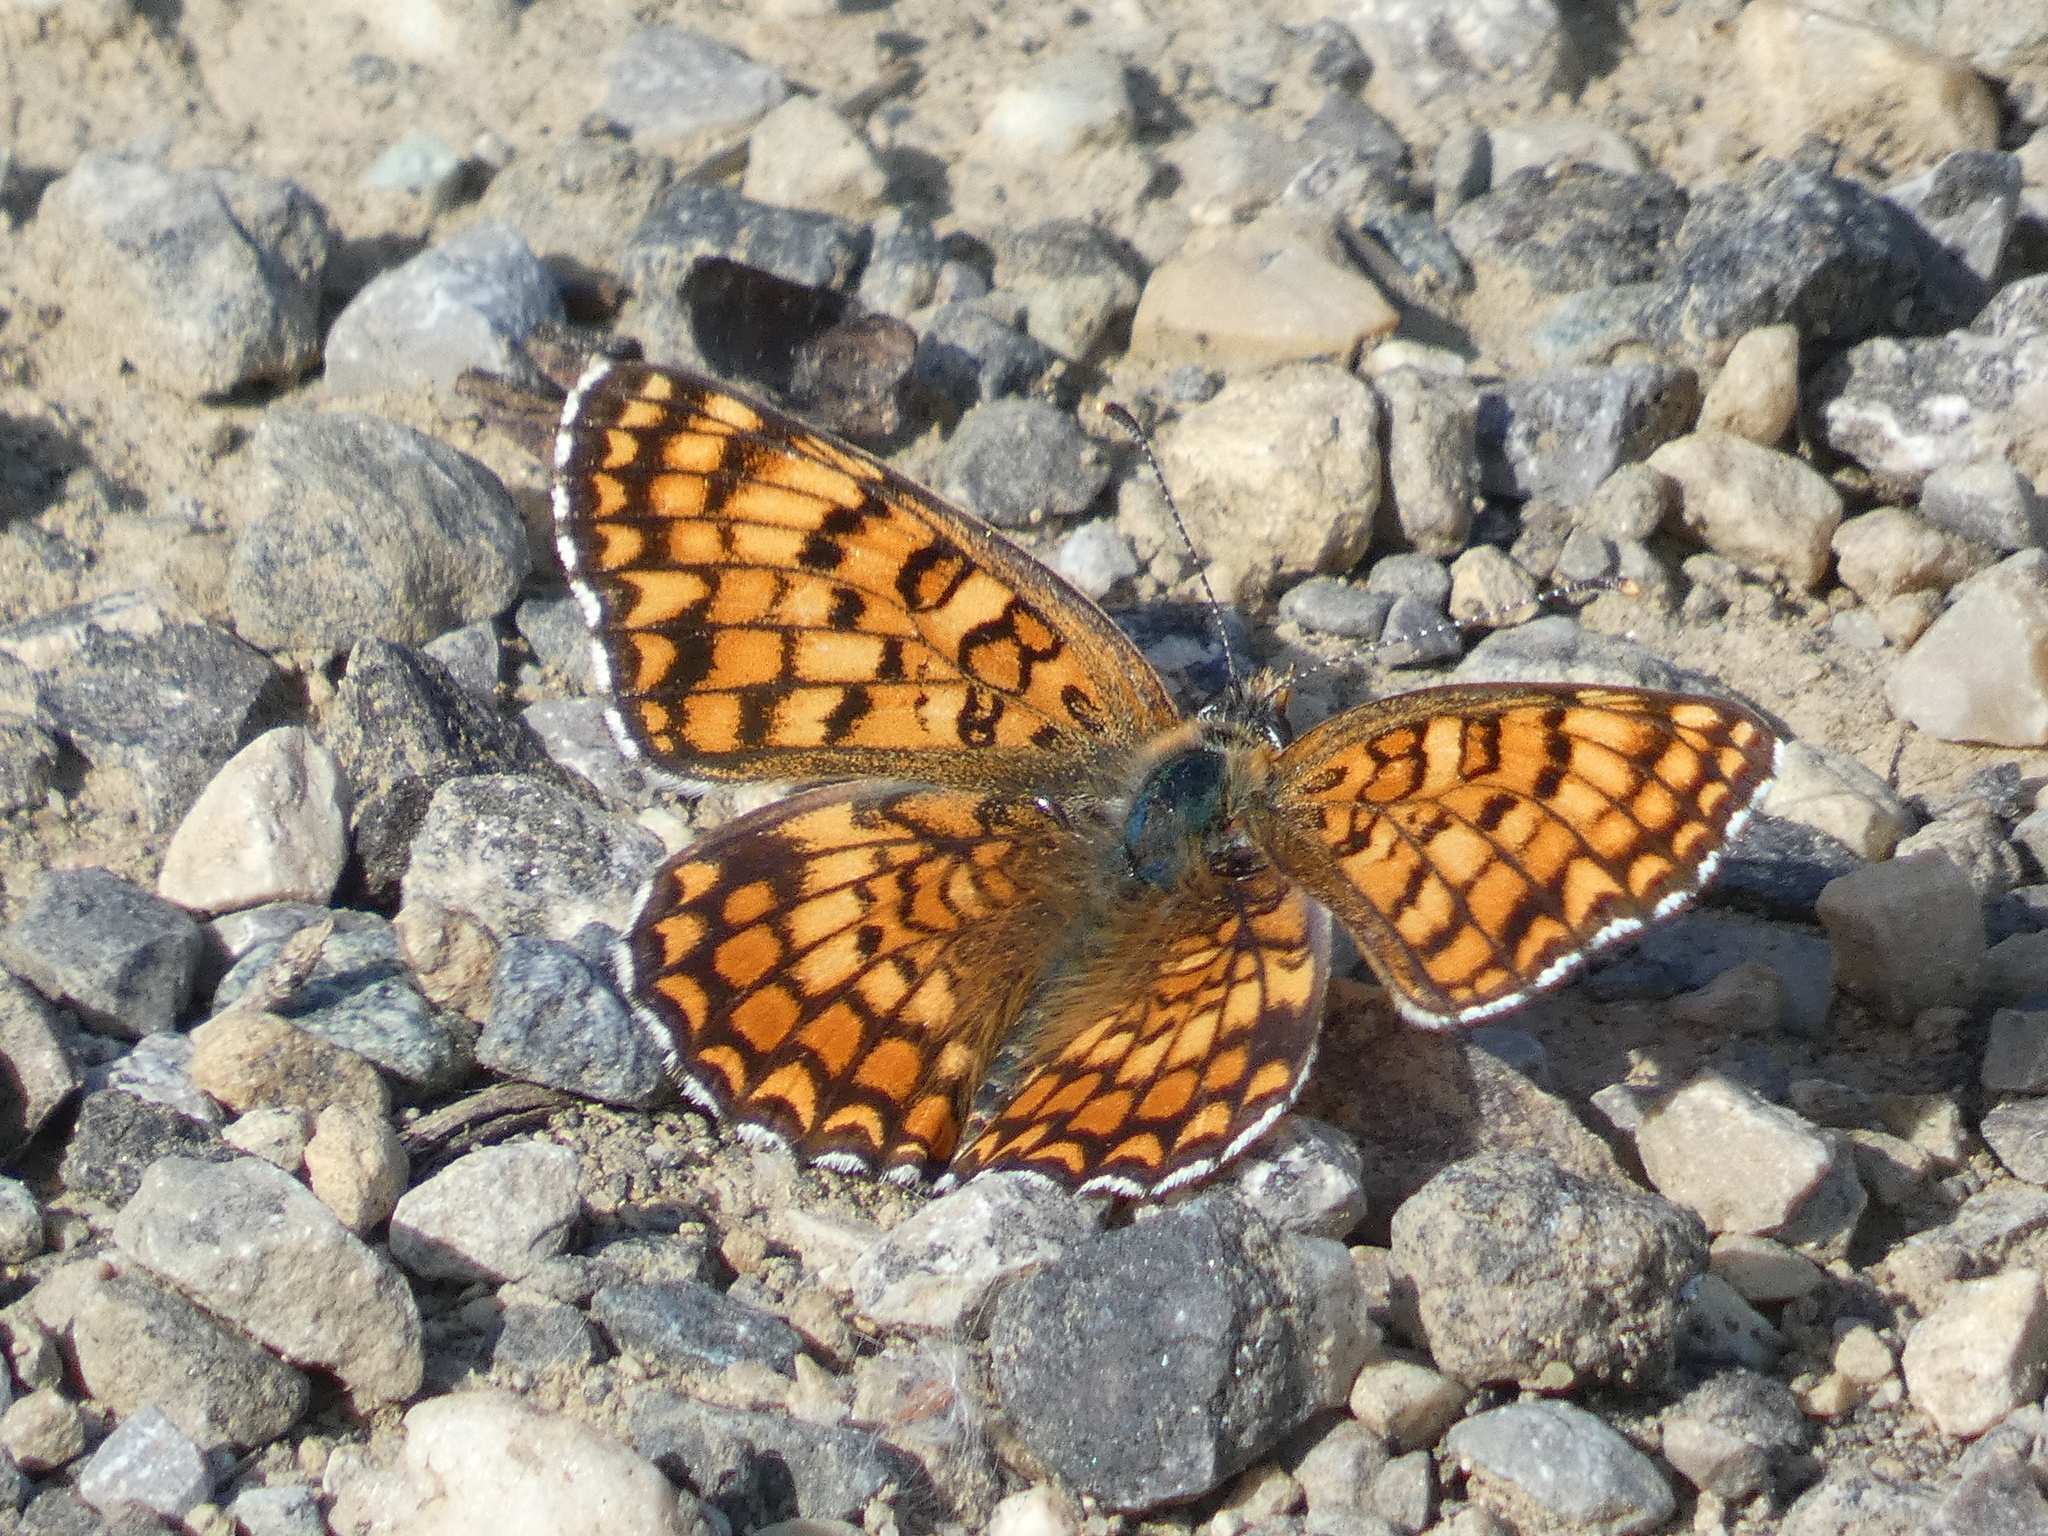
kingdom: Animalia
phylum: Arthropoda
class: Insecta
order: Lepidoptera
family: Nymphalidae
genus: Melitaea
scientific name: Melitaea phoebe
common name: Knapweed fritillary
